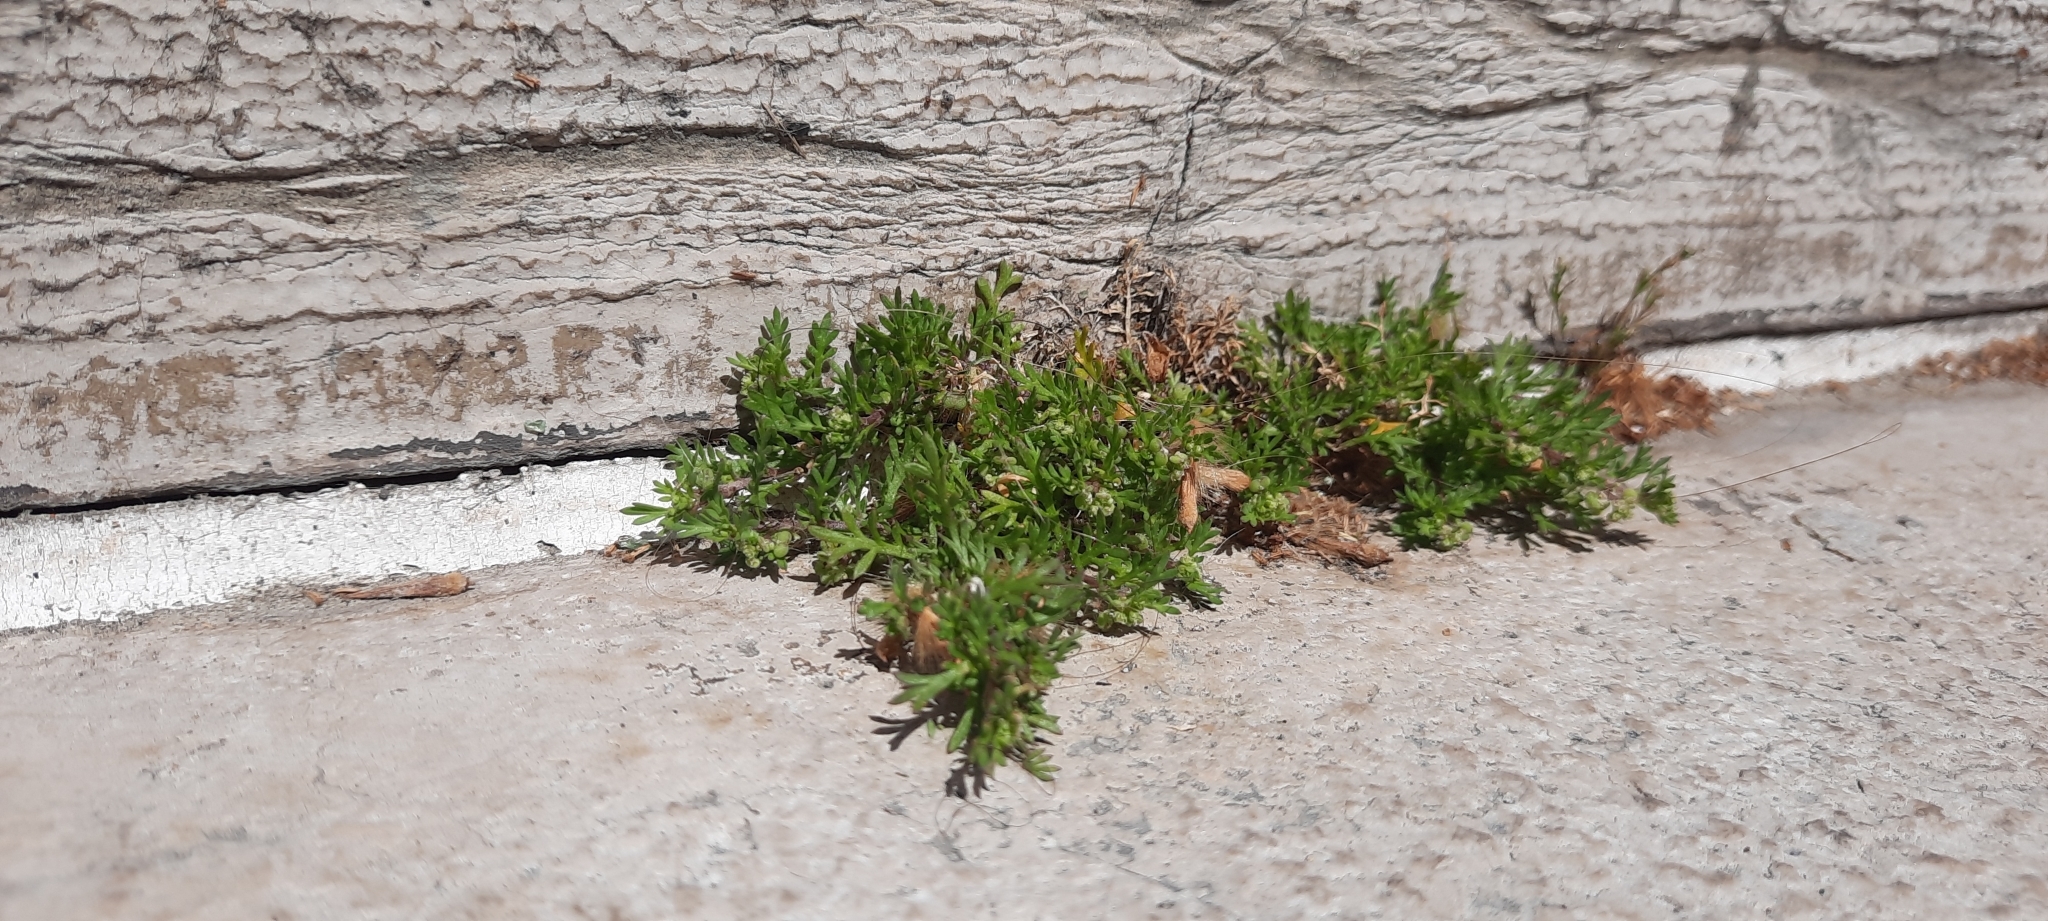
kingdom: Plantae
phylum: Tracheophyta
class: Magnoliopsida
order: Brassicales
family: Brassicaceae
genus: Lepidium
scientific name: Lepidium didymum
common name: Lesser swinecress
